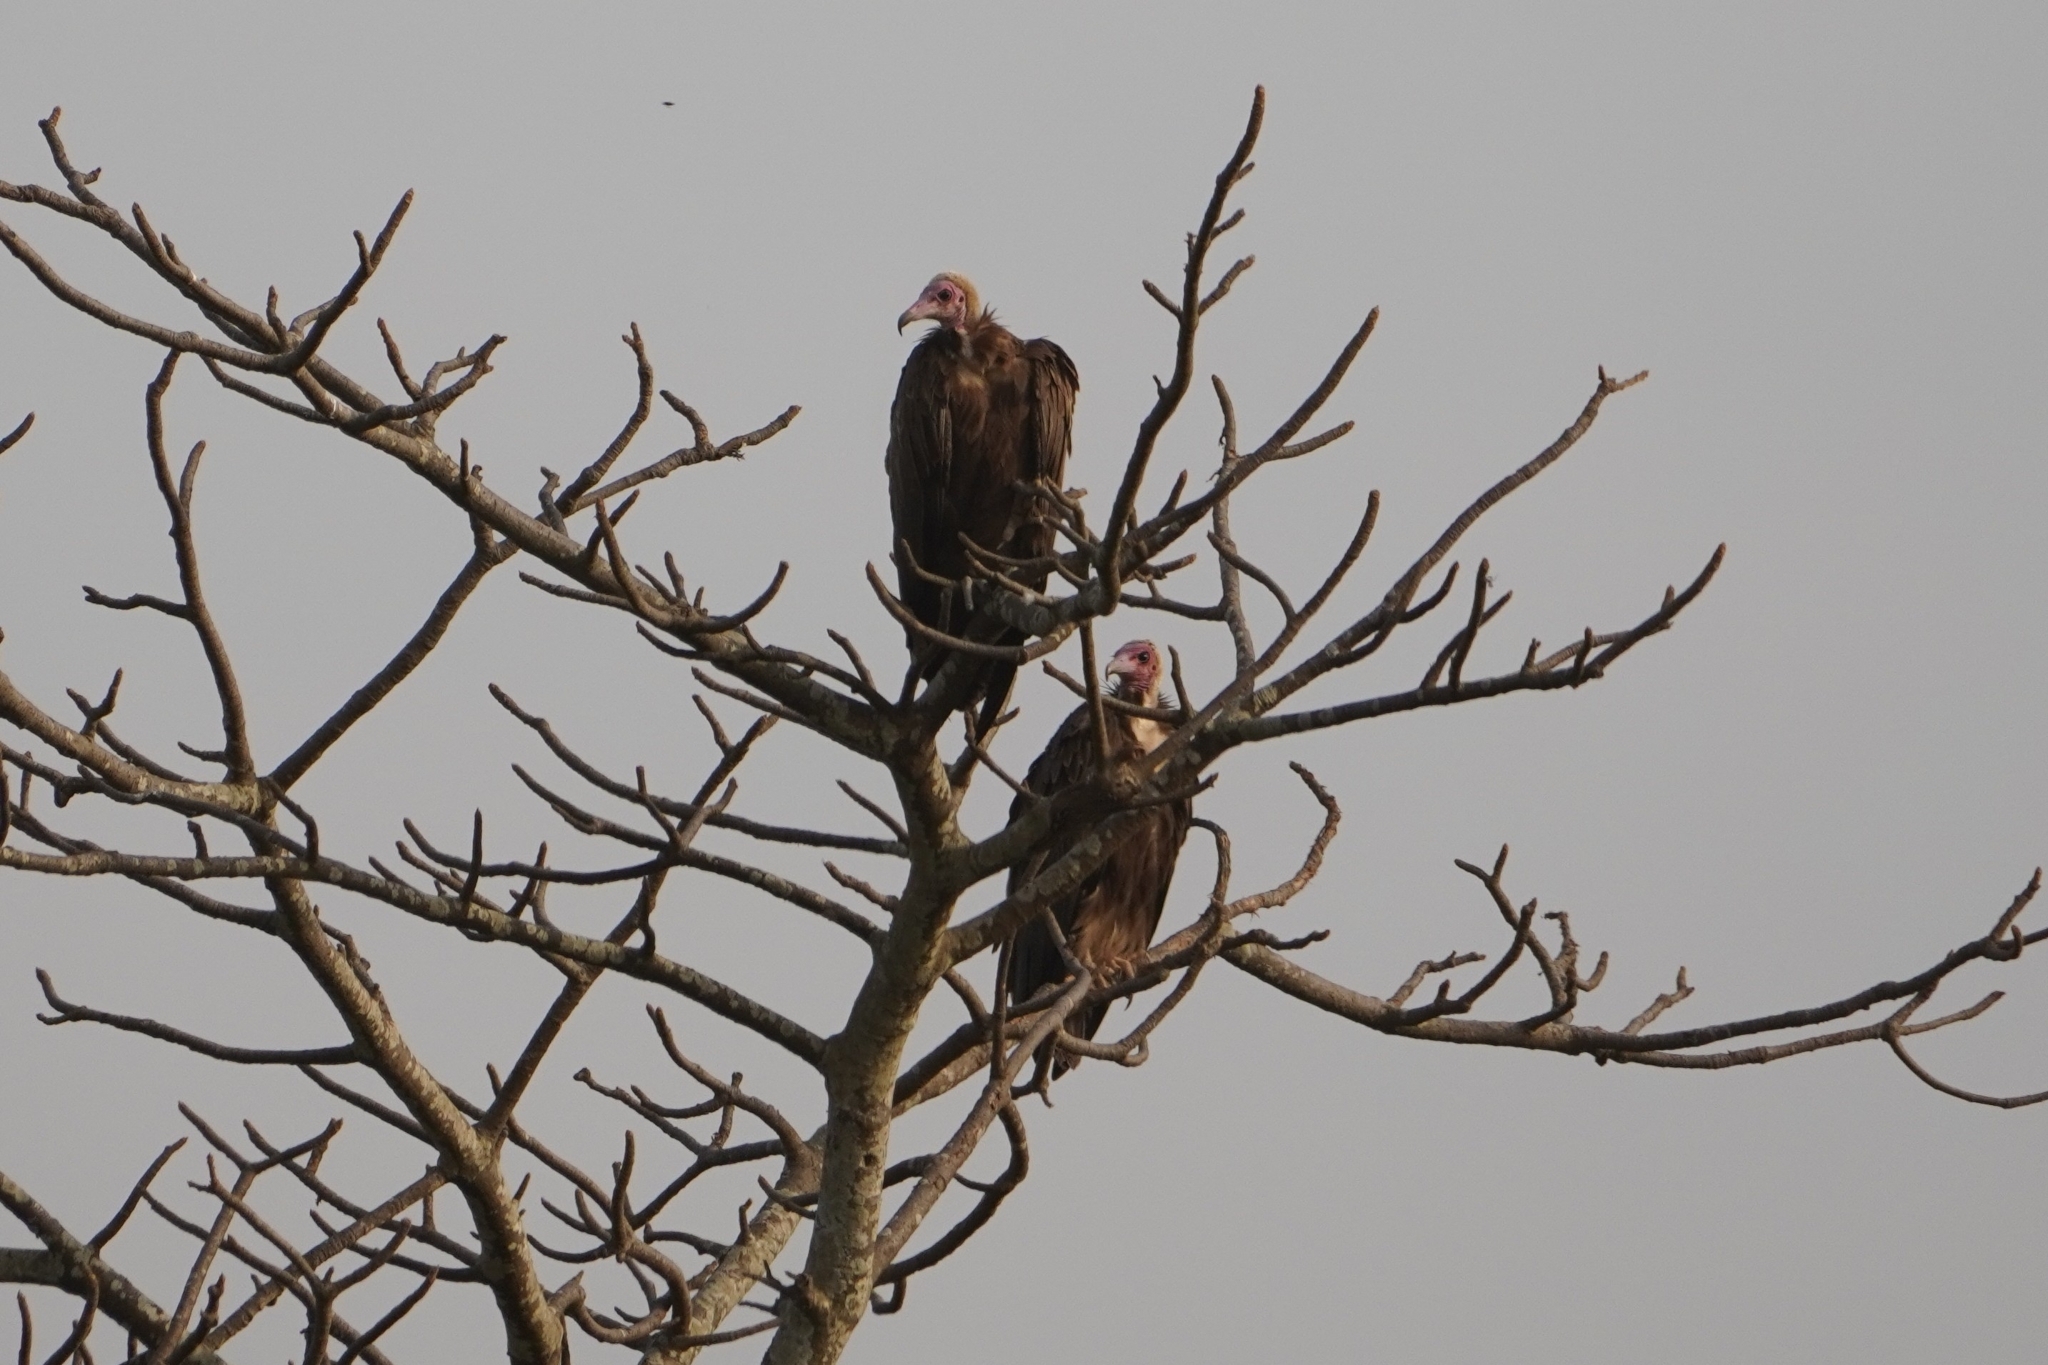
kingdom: Animalia
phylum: Chordata
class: Aves
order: Accipitriformes
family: Accipitridae
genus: Necrosyrtes
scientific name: Necrosyrtes monachus
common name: Hooded vulture
